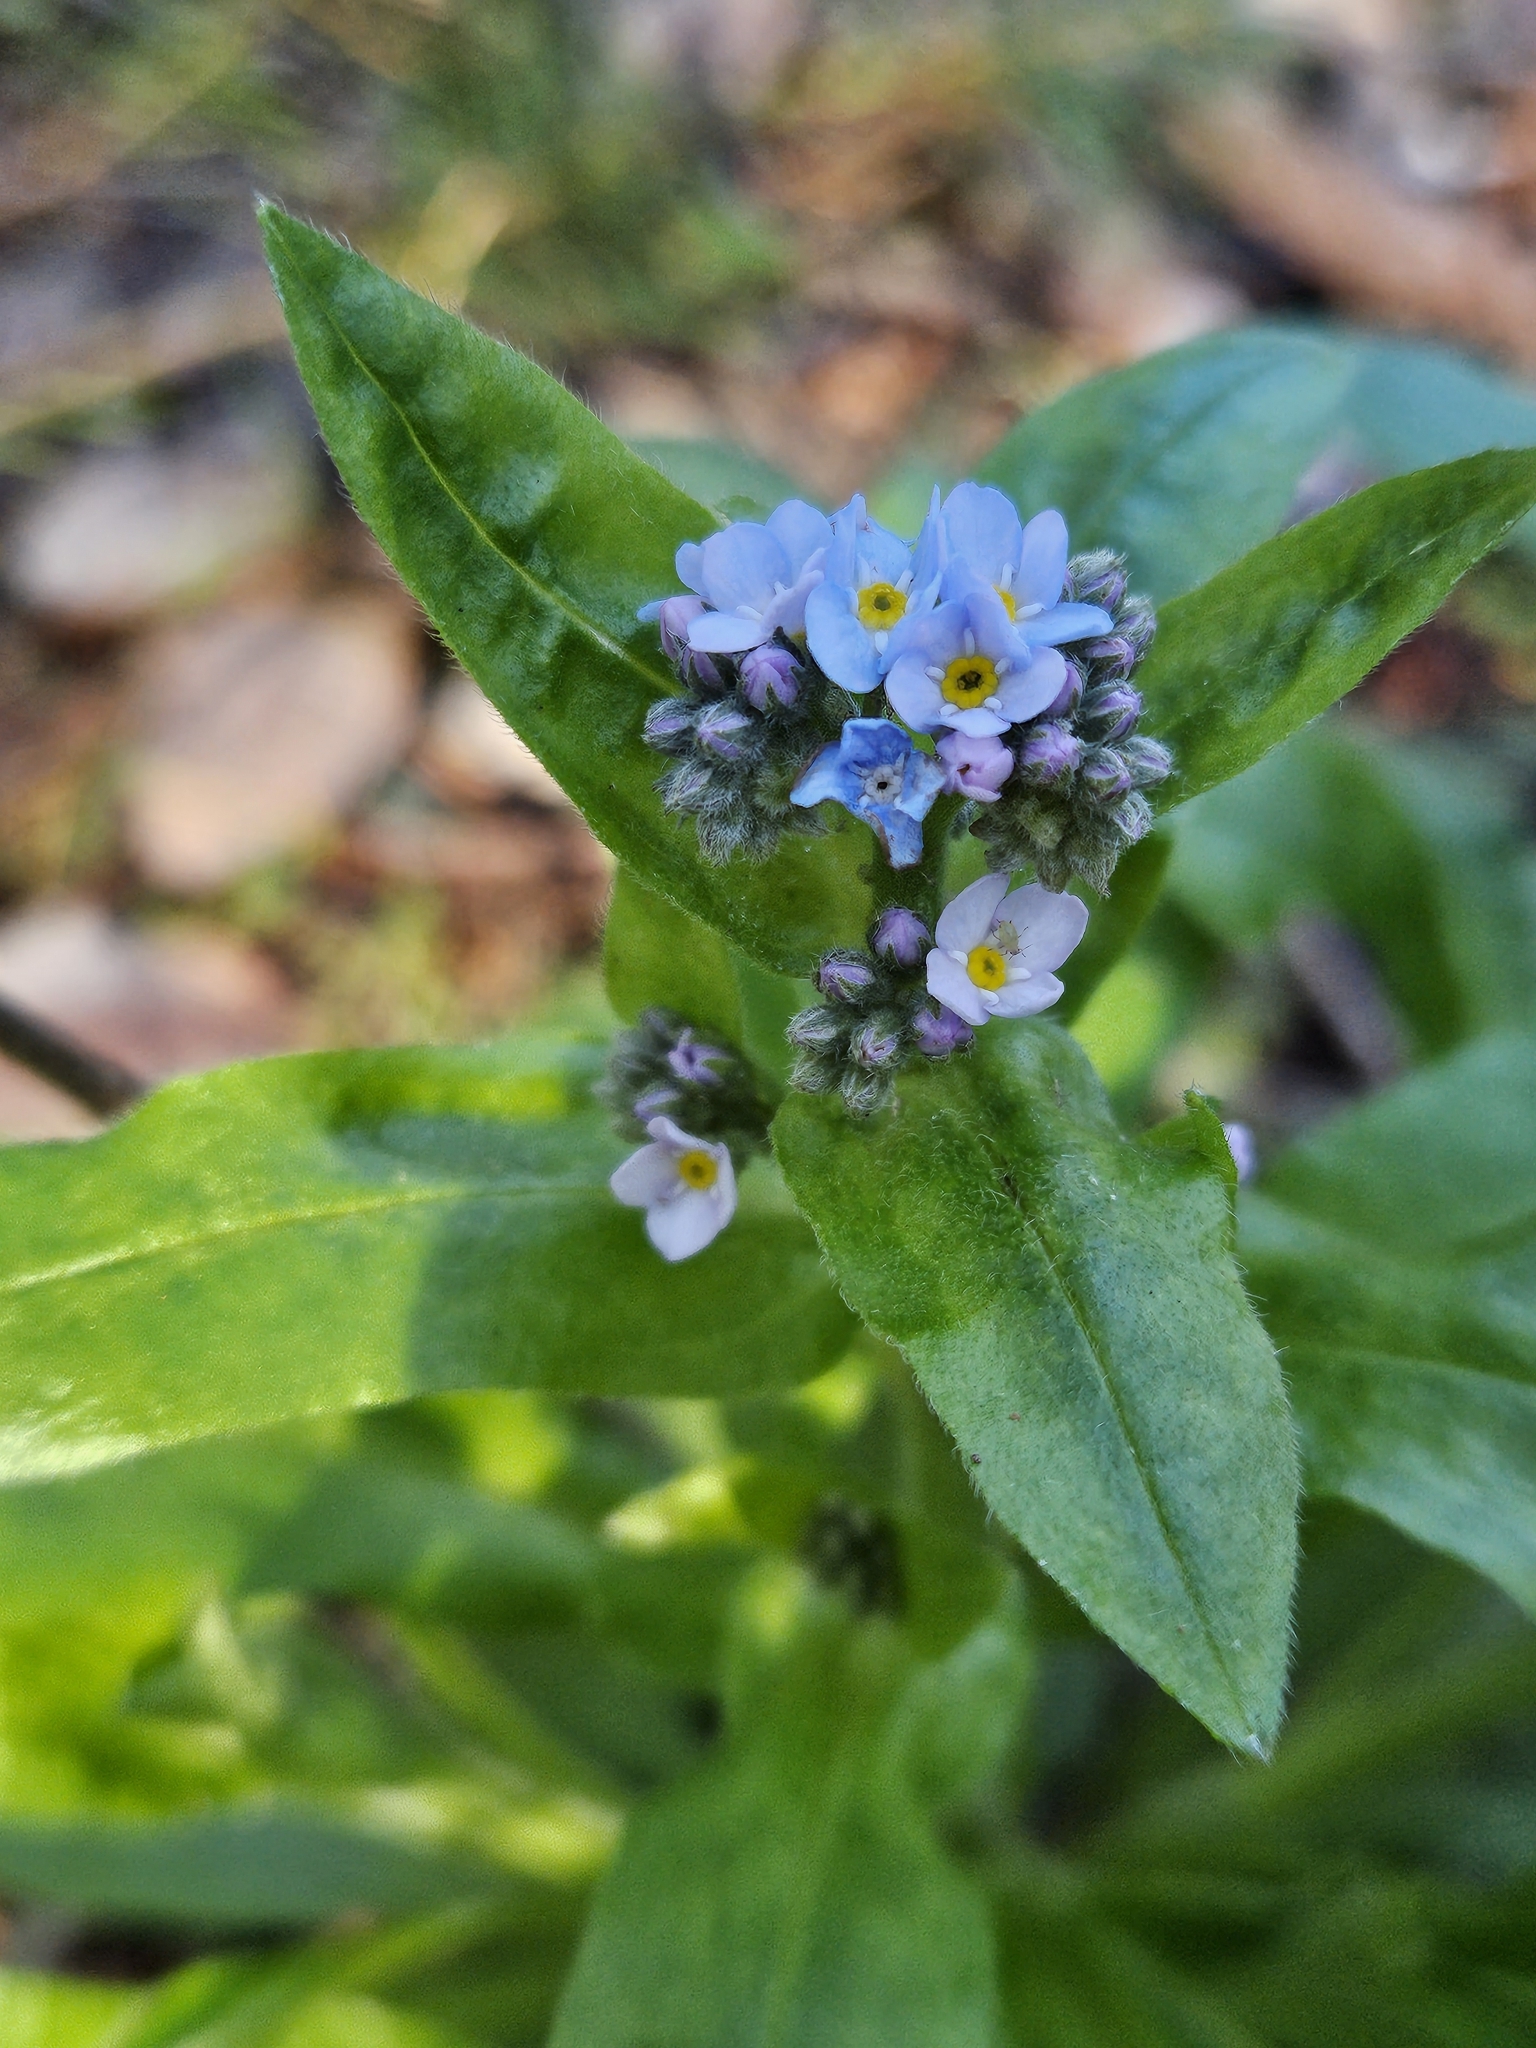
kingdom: Plantae
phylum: Tracheophyta
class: Magnoliopsida
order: Boraginales
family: Boraginaceae
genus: Myosotis
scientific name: Myosotis latifolia
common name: Broadleaf forget-me-not
